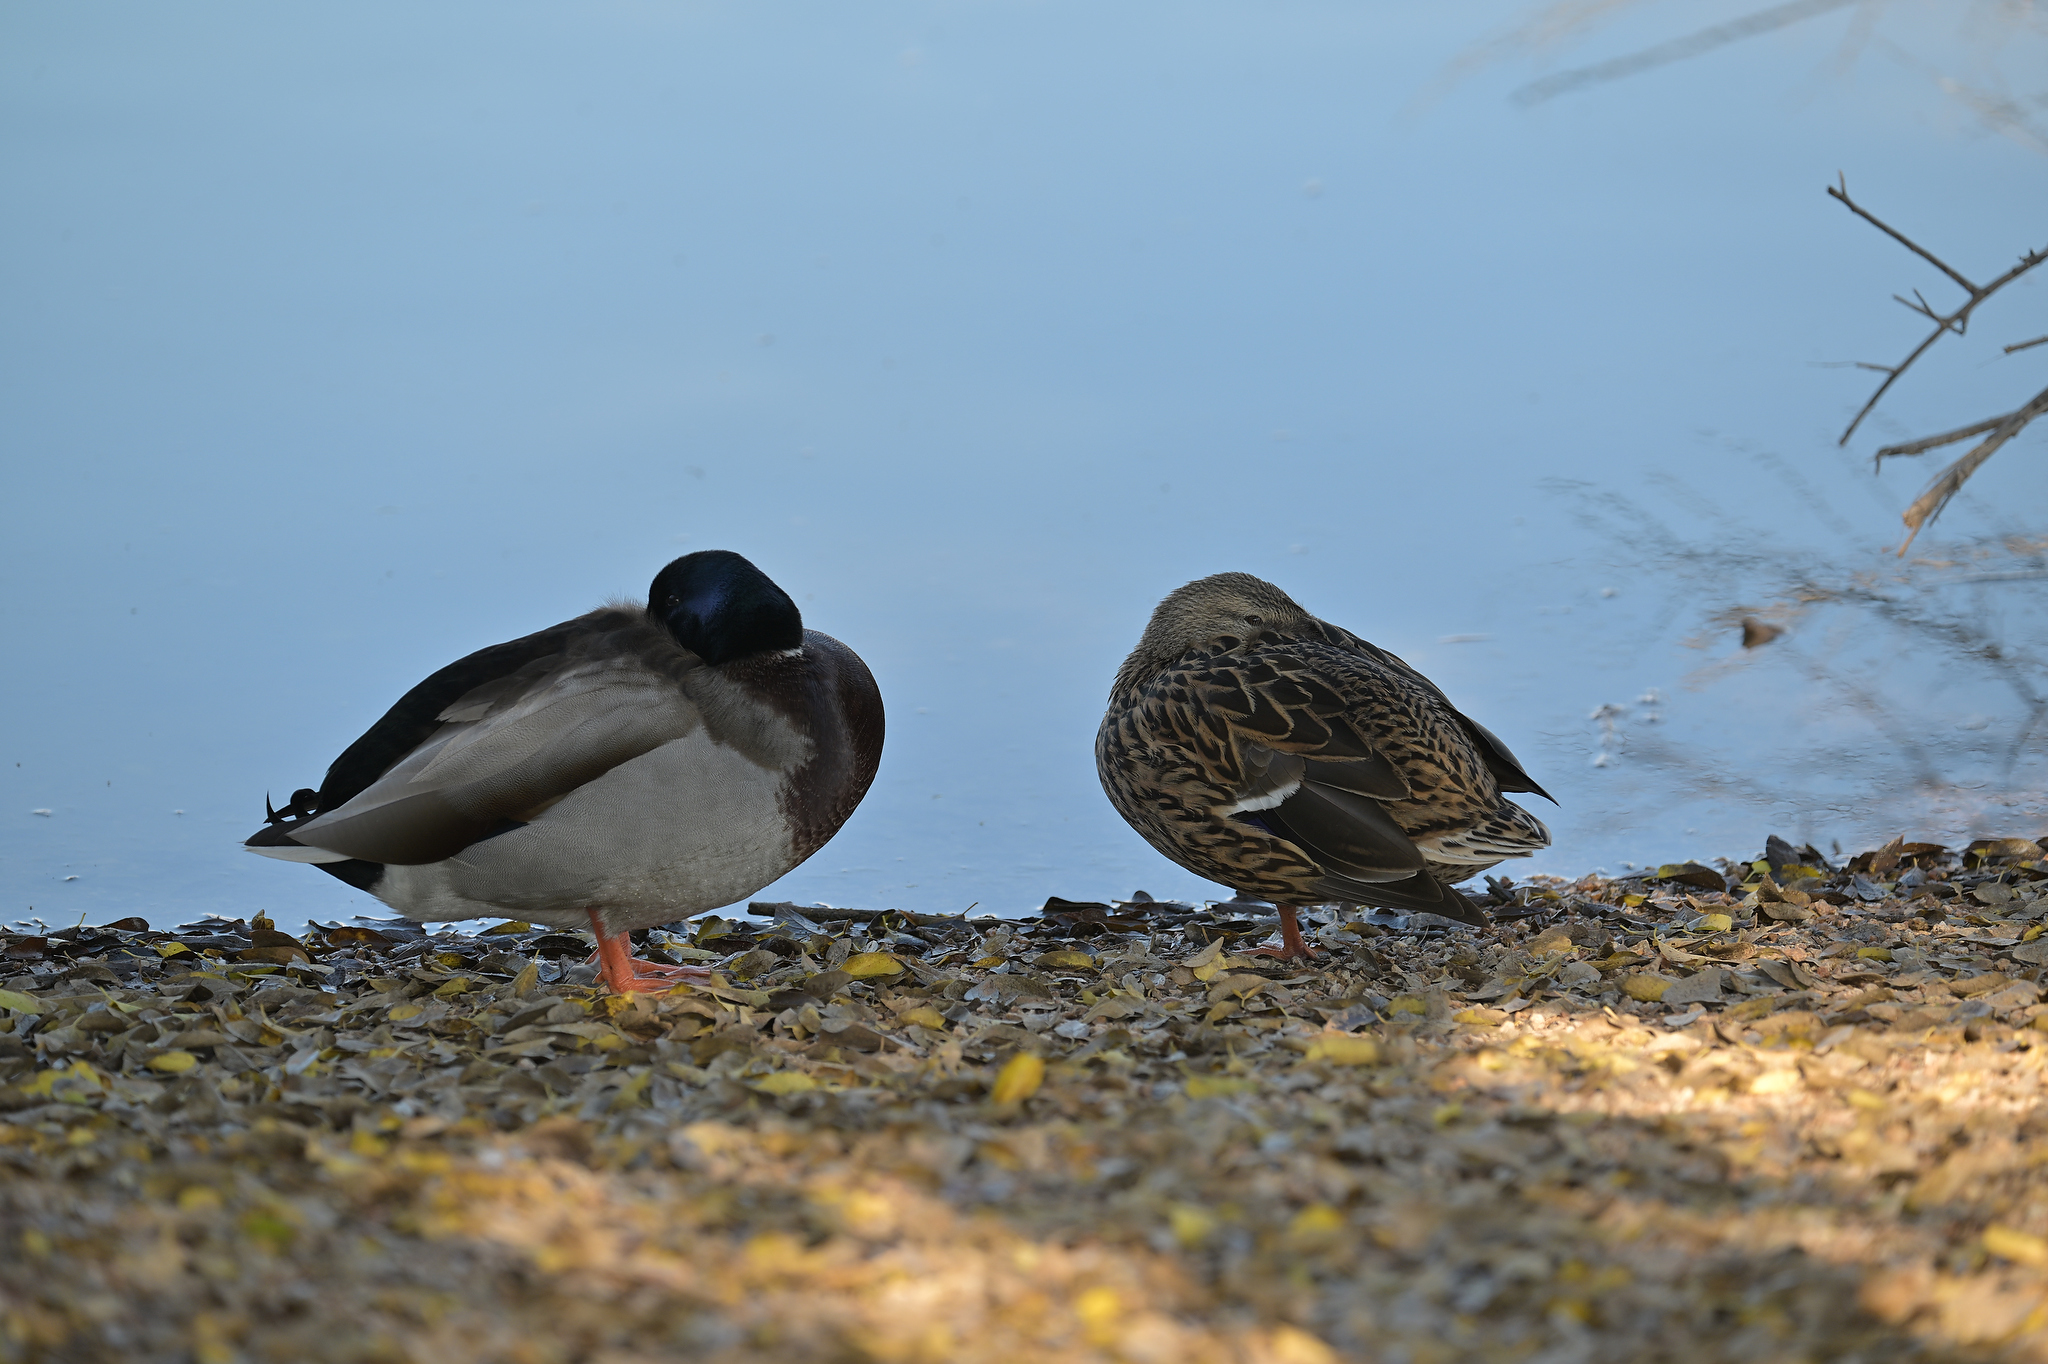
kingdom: Animalia
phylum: Chordata
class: Aves
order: Anseriformes
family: Anatidae
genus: Anas
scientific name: Anas platyrhynchos
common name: Mallard
